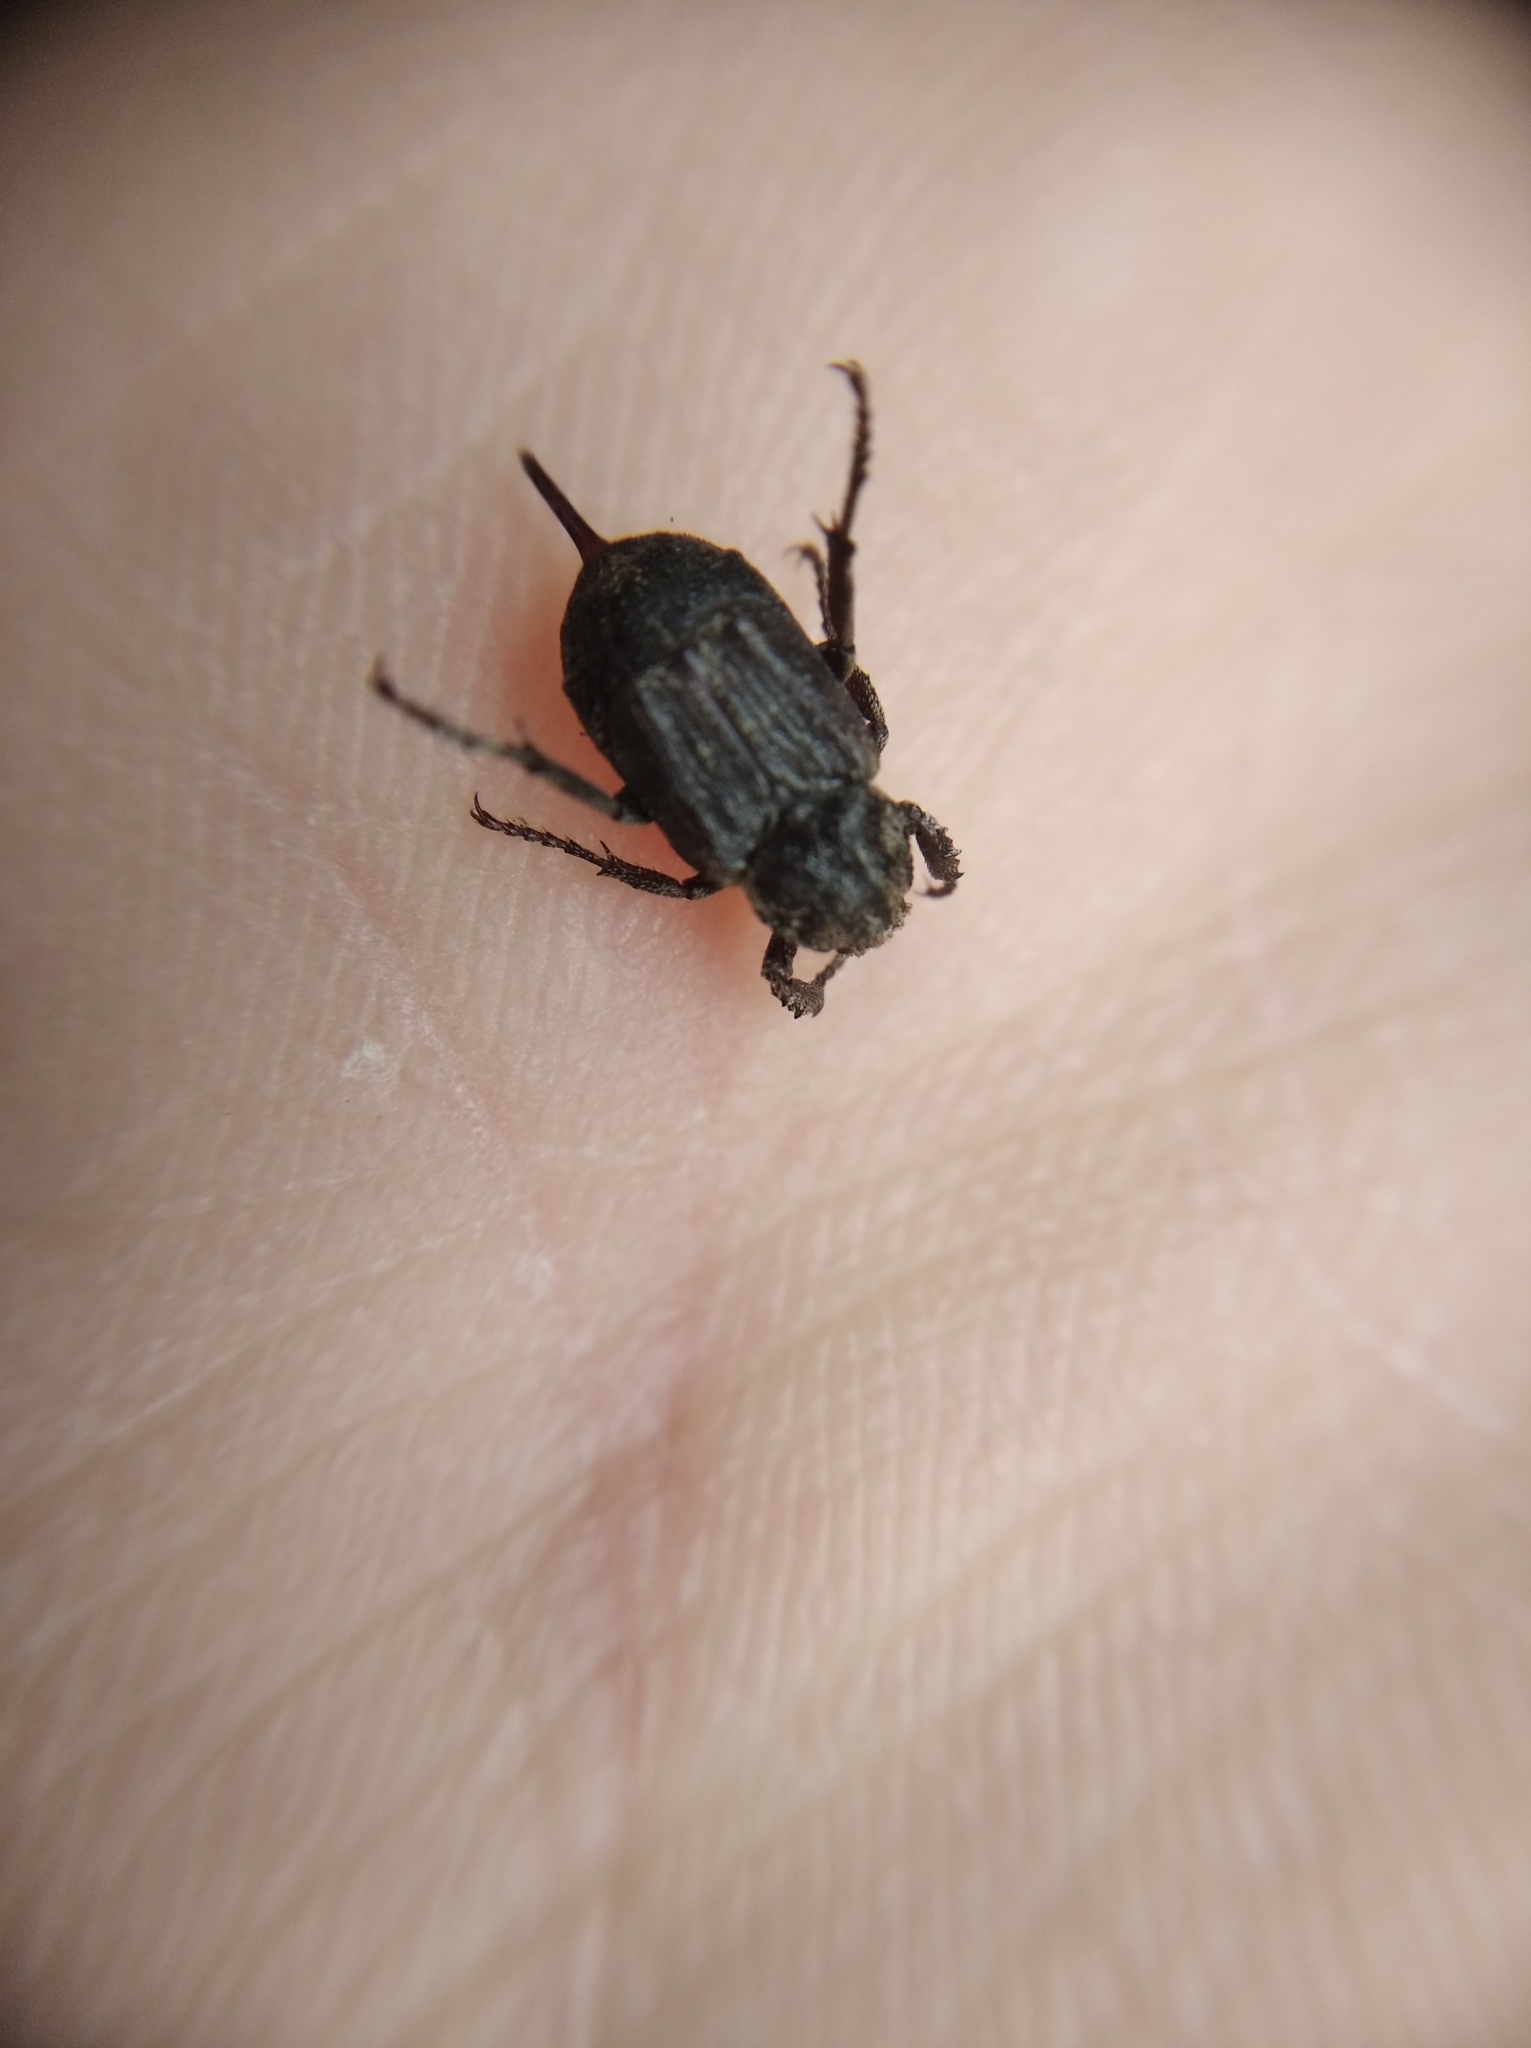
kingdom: Animalia
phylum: Arthropoda
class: Insecta
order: Coleoptera
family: Scarabaeidae
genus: Valgus
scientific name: Valgus hemipterus
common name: Bug flower chafer
